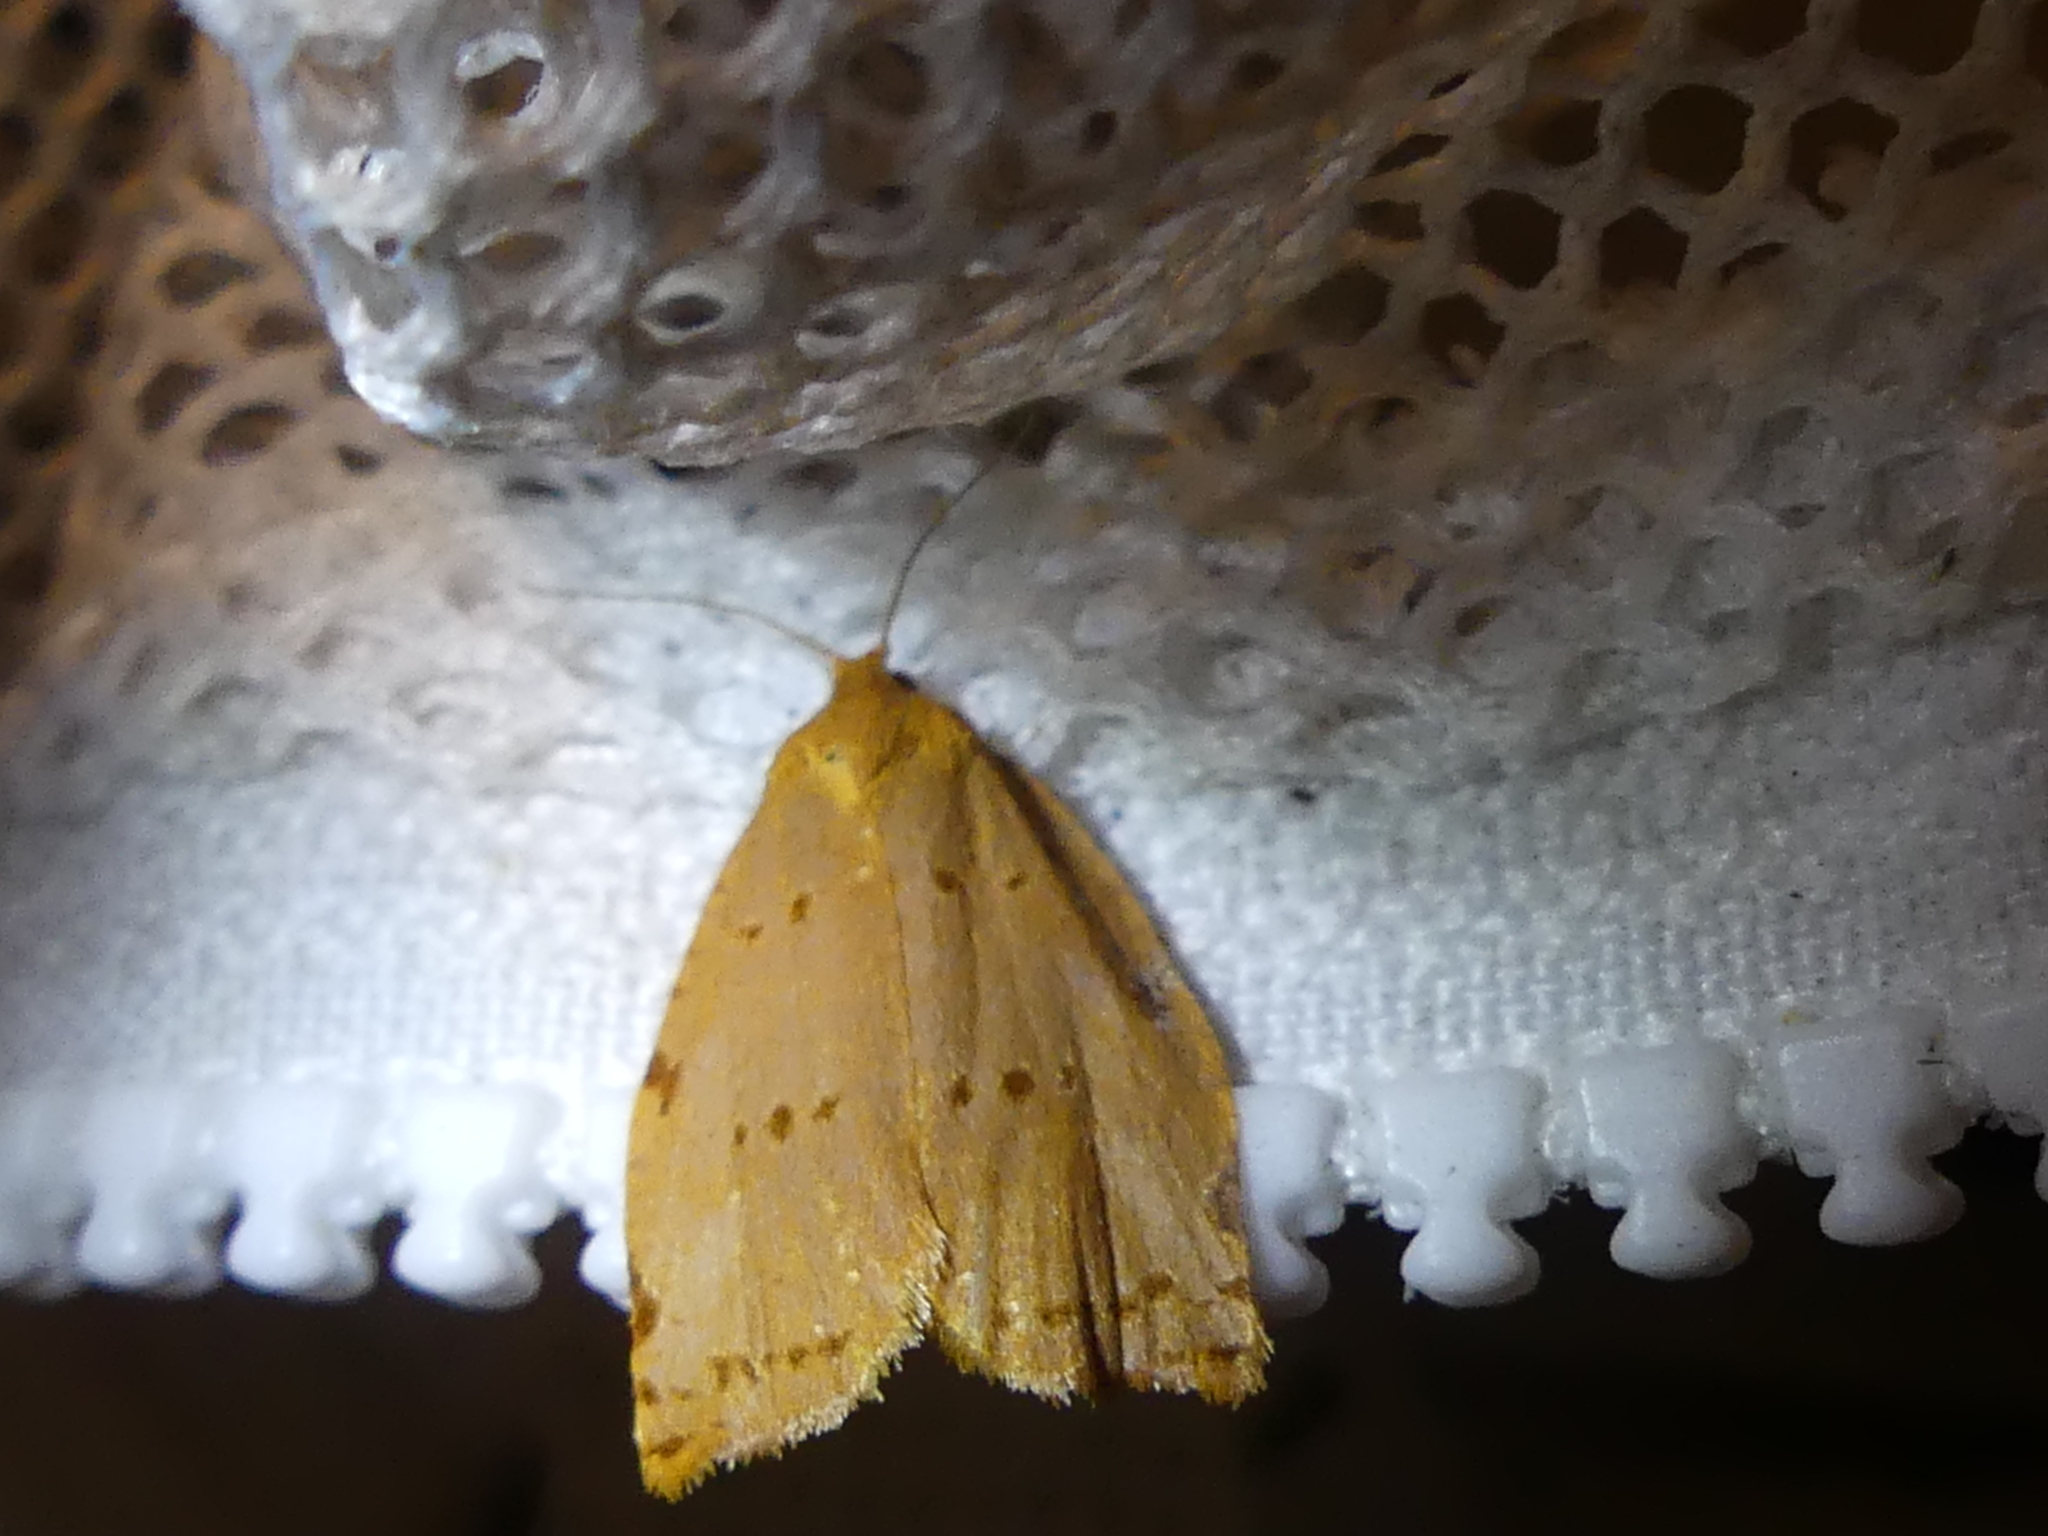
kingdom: Animalia
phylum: Arthropoda
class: Insecta
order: Lepidoptera
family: Tortricidae
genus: Archips
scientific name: Archips rileyana
